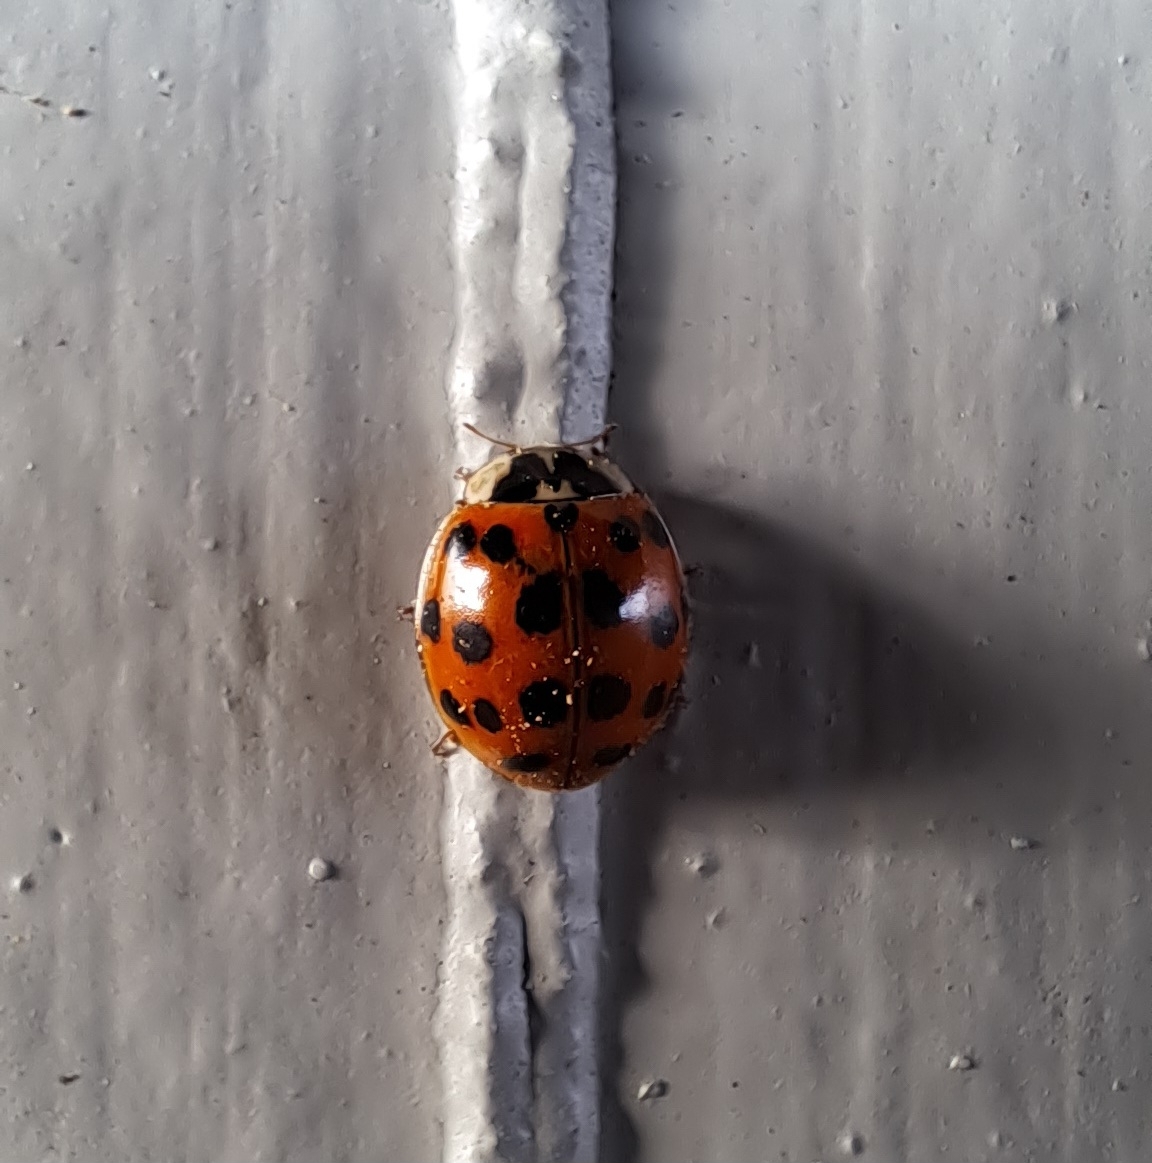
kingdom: Animalia
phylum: Arthropoda
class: Insecta
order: Coleoptera
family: Coccinellidae
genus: Harmonia
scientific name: Harmonia axyridis
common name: Harlequin ladybird
